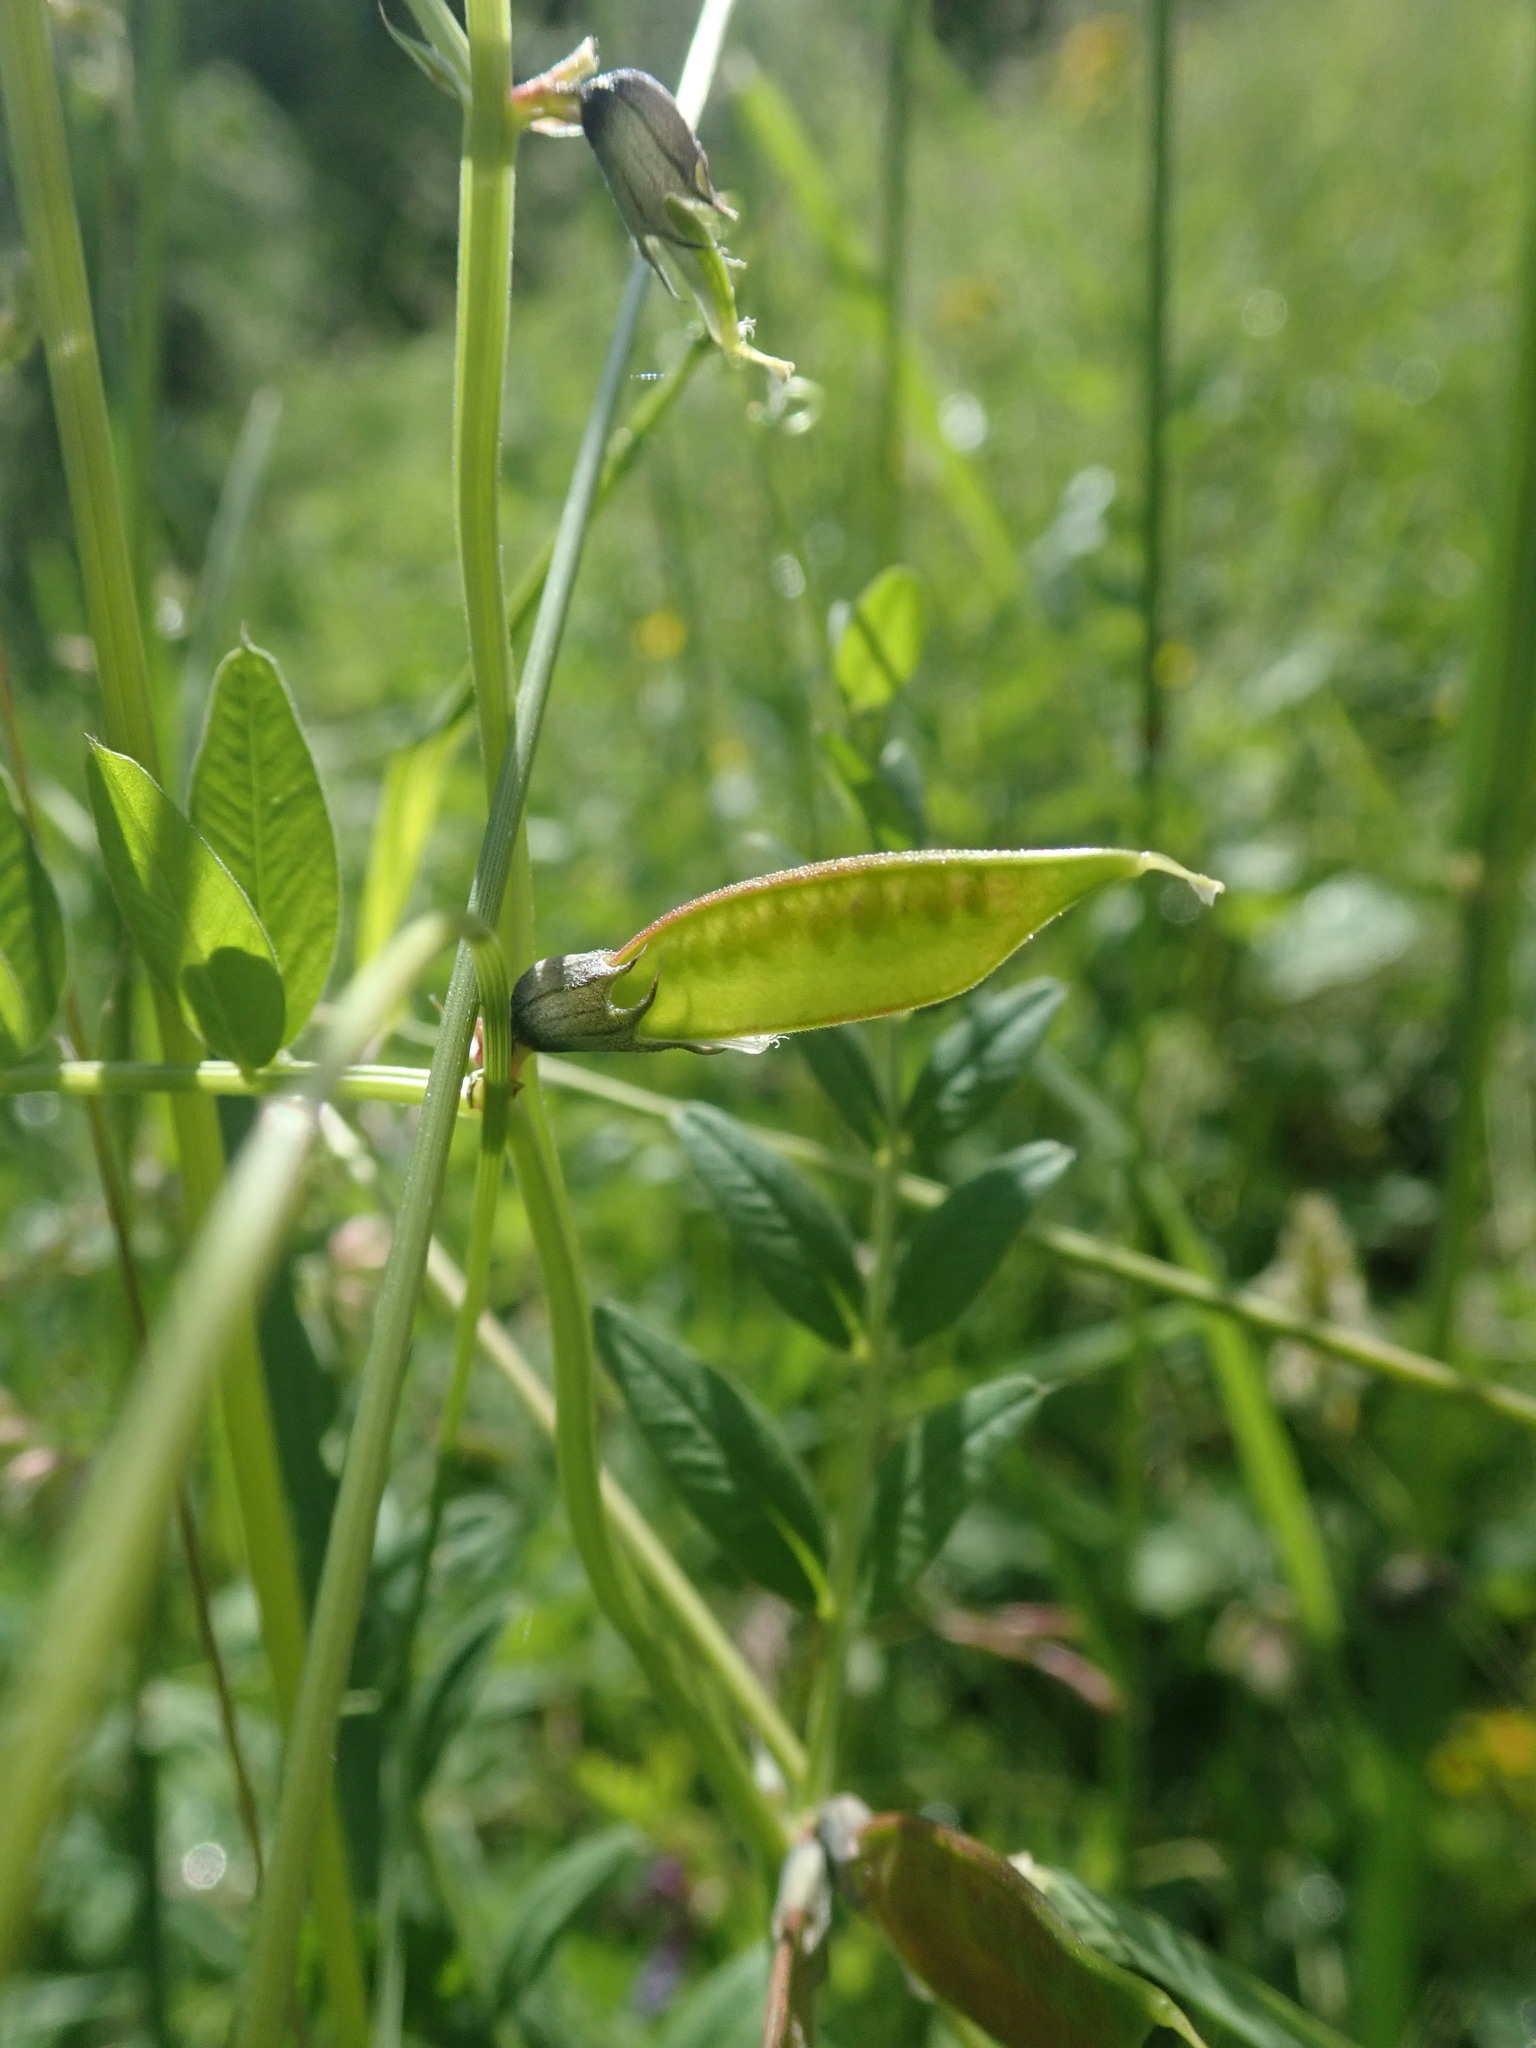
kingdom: Plantae
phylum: Tracheophyta
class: Magnoliopsida
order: Fabales
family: Fabaceae
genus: Vicia
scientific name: Vicia sepium
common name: Bush vetch
